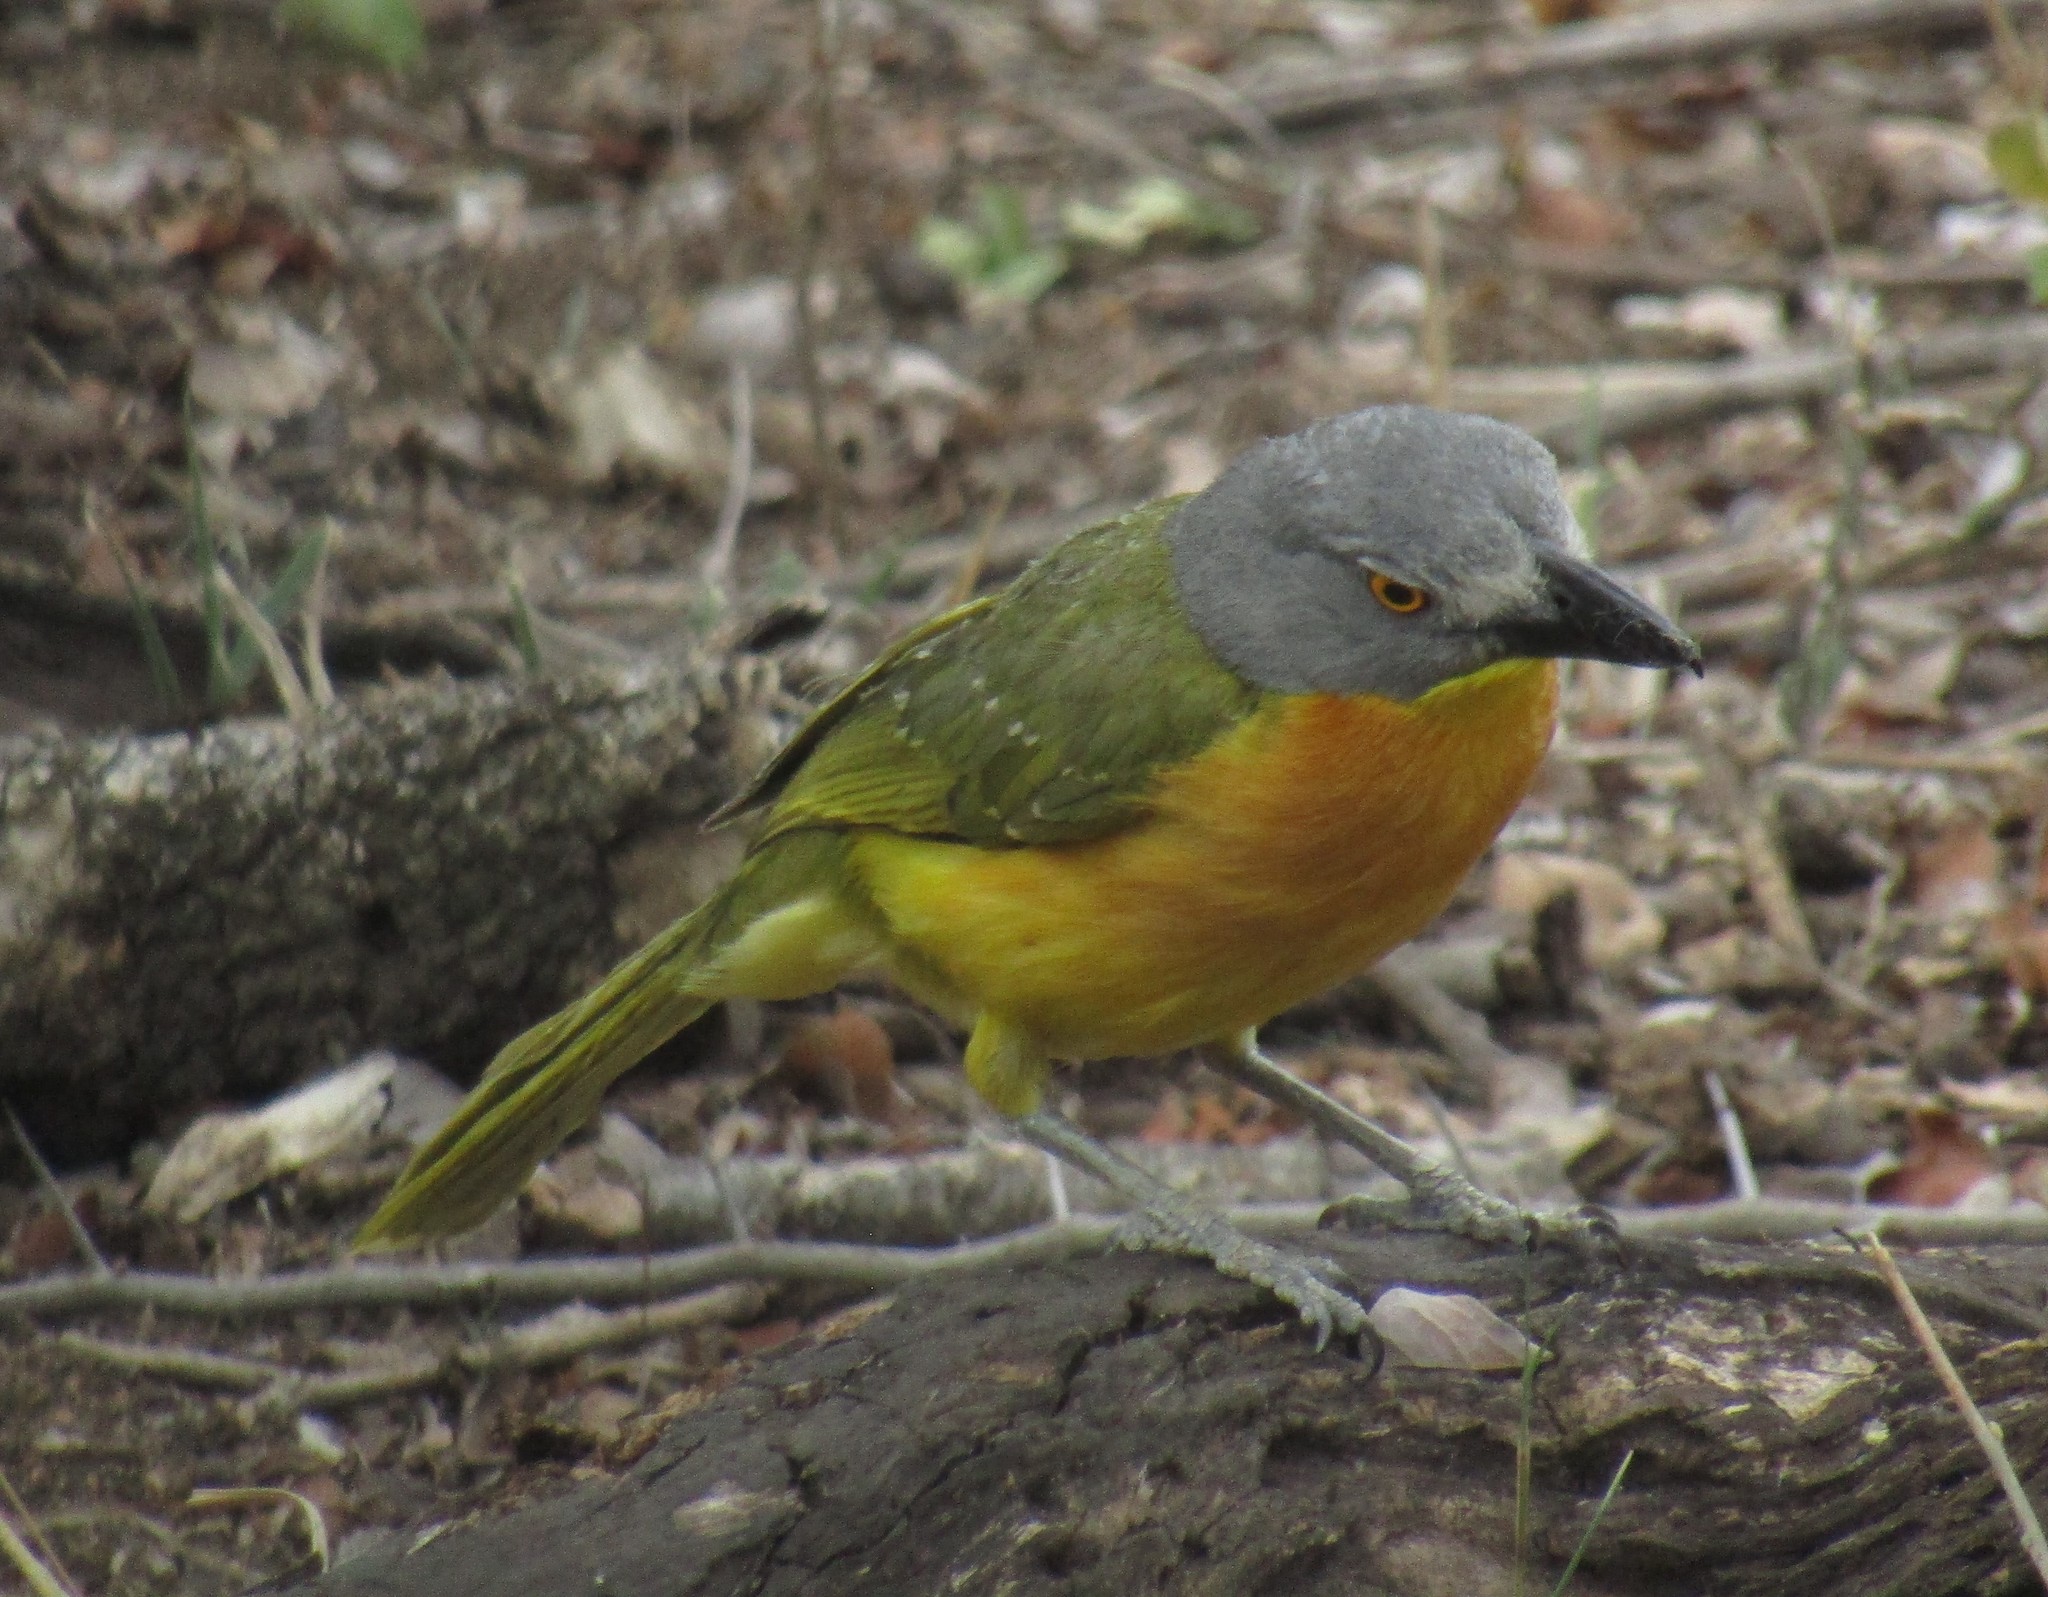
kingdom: Animalia
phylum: Chordata
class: Aves
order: Passeriformes
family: Malaconotidae
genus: Malaconotus
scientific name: Malaconotus blanchoti
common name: Grey-headed bushshrike
